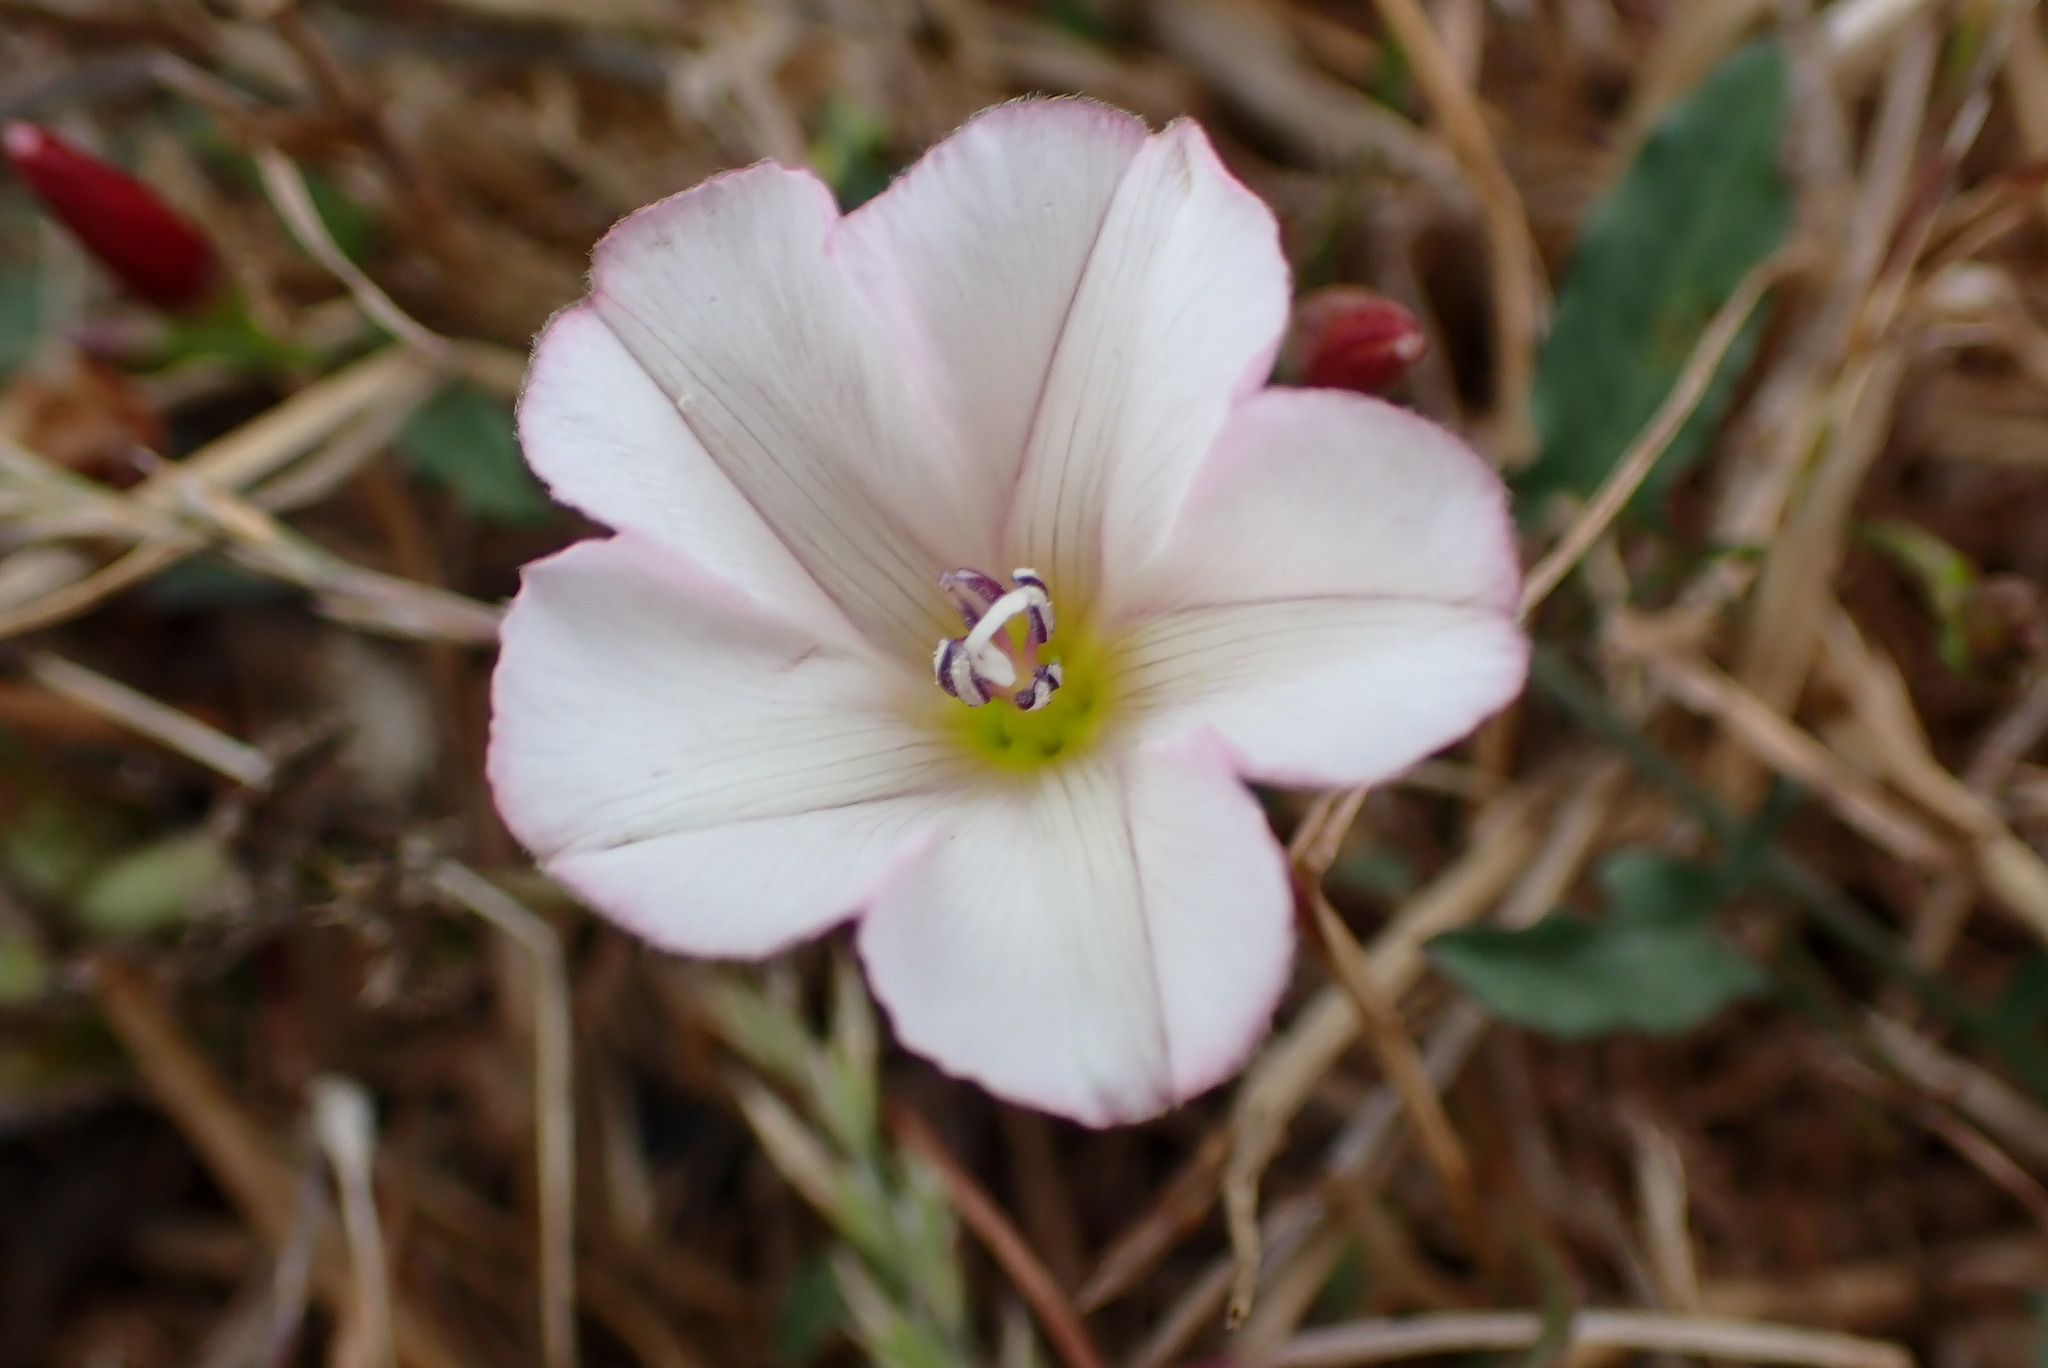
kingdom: Plantae
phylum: Tracheophyta
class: Magnoliopsida
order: Solanales
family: Convolvulaceae
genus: Convolvulus
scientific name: Convolvulus arvensis
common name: Field bindweed
